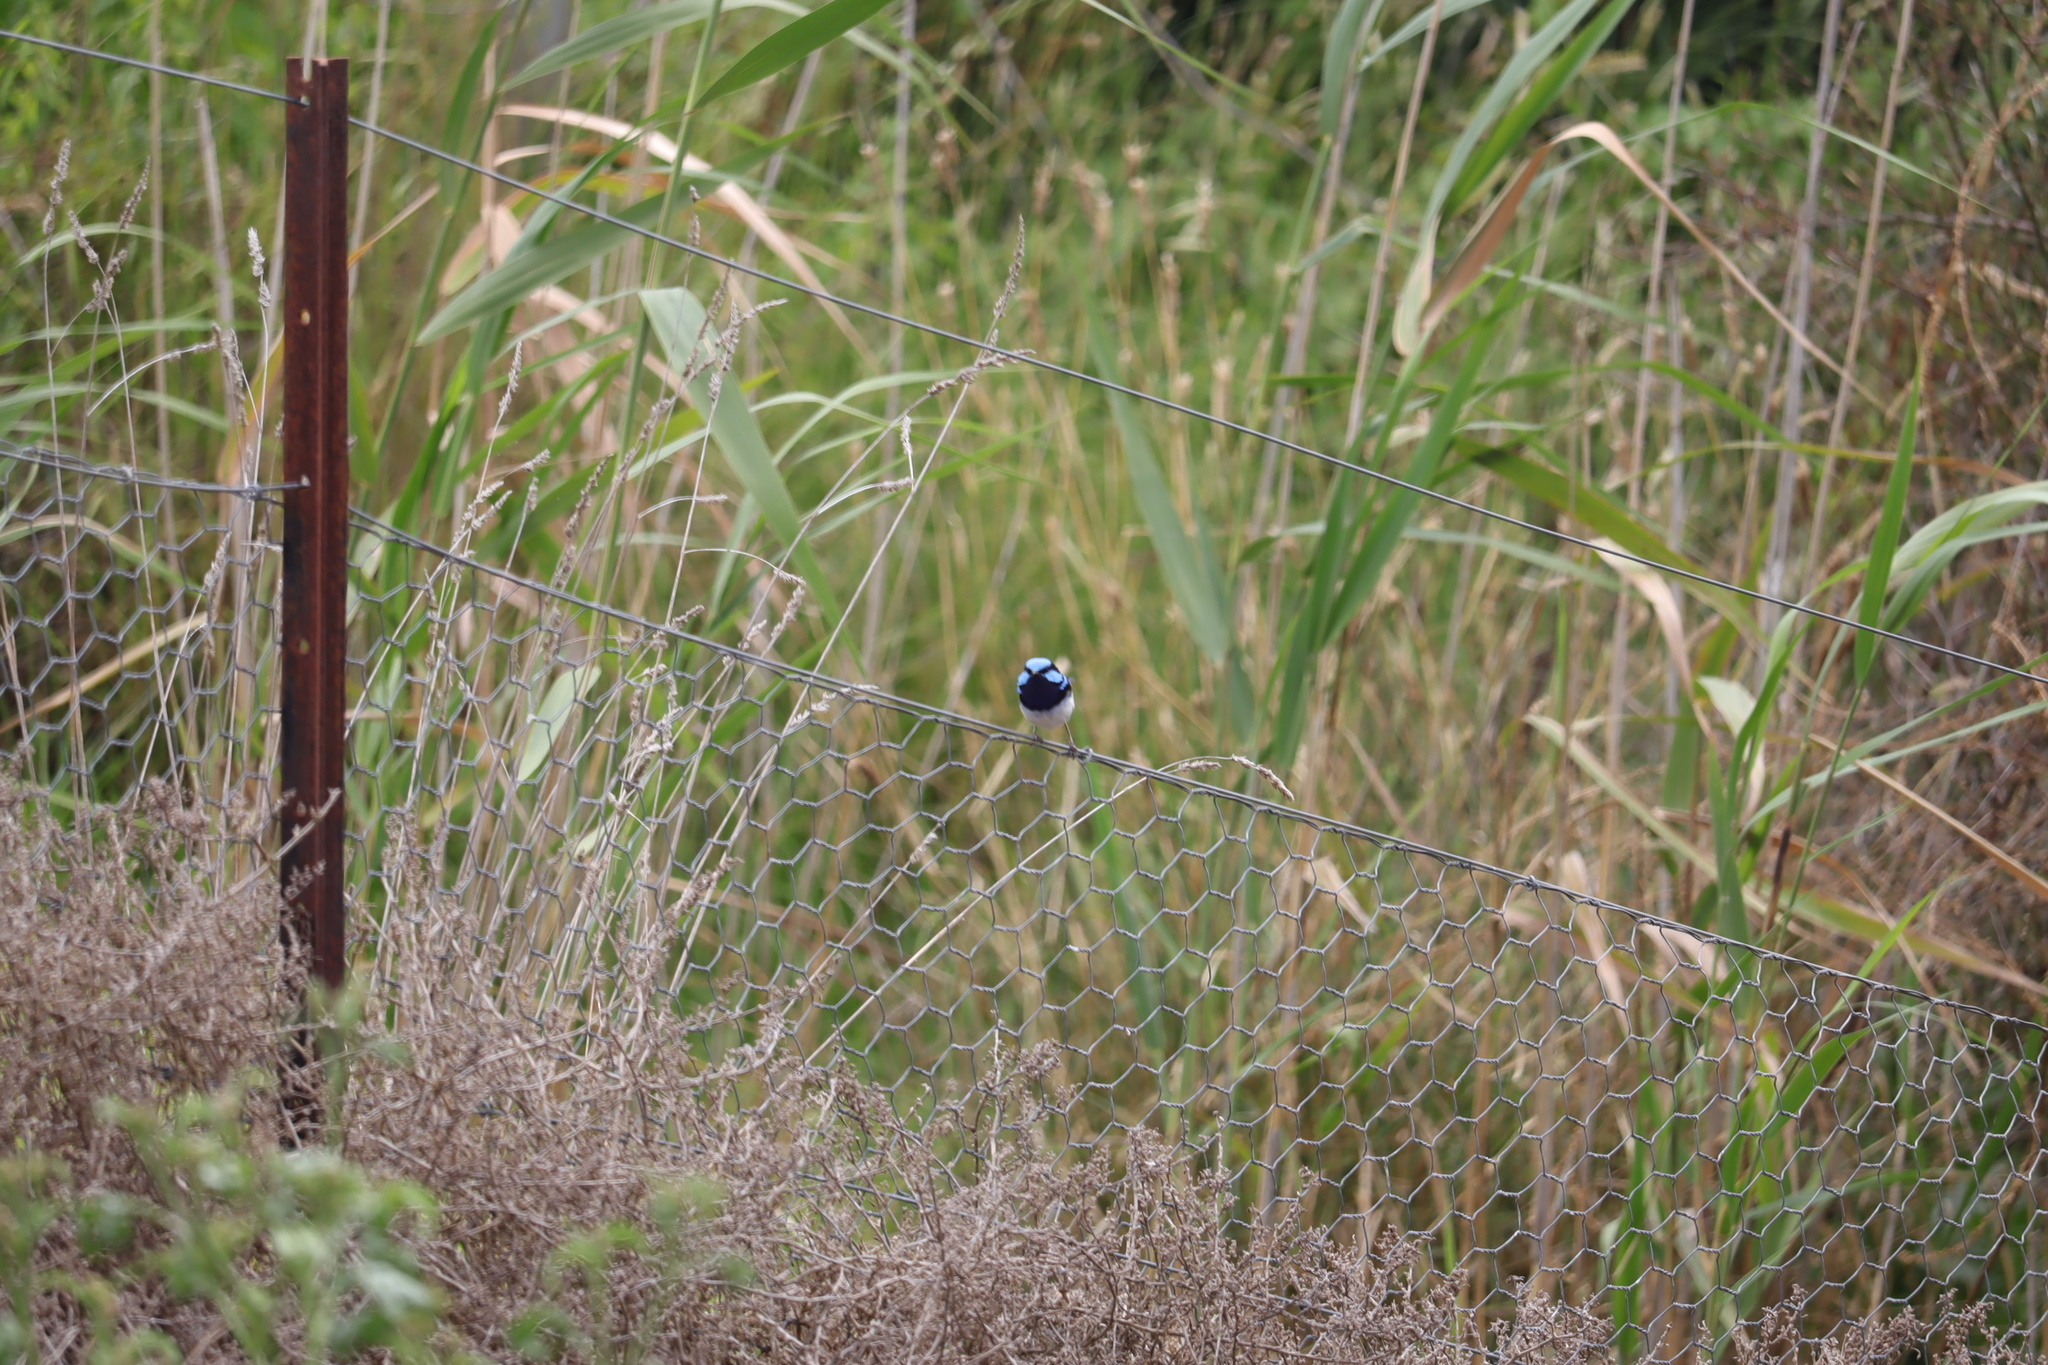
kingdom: Animalia
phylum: Chordata
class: Aves
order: Passeriformes
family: Maluridae
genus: Malurus
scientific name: Malurus cyaneus
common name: Superb fairywren
